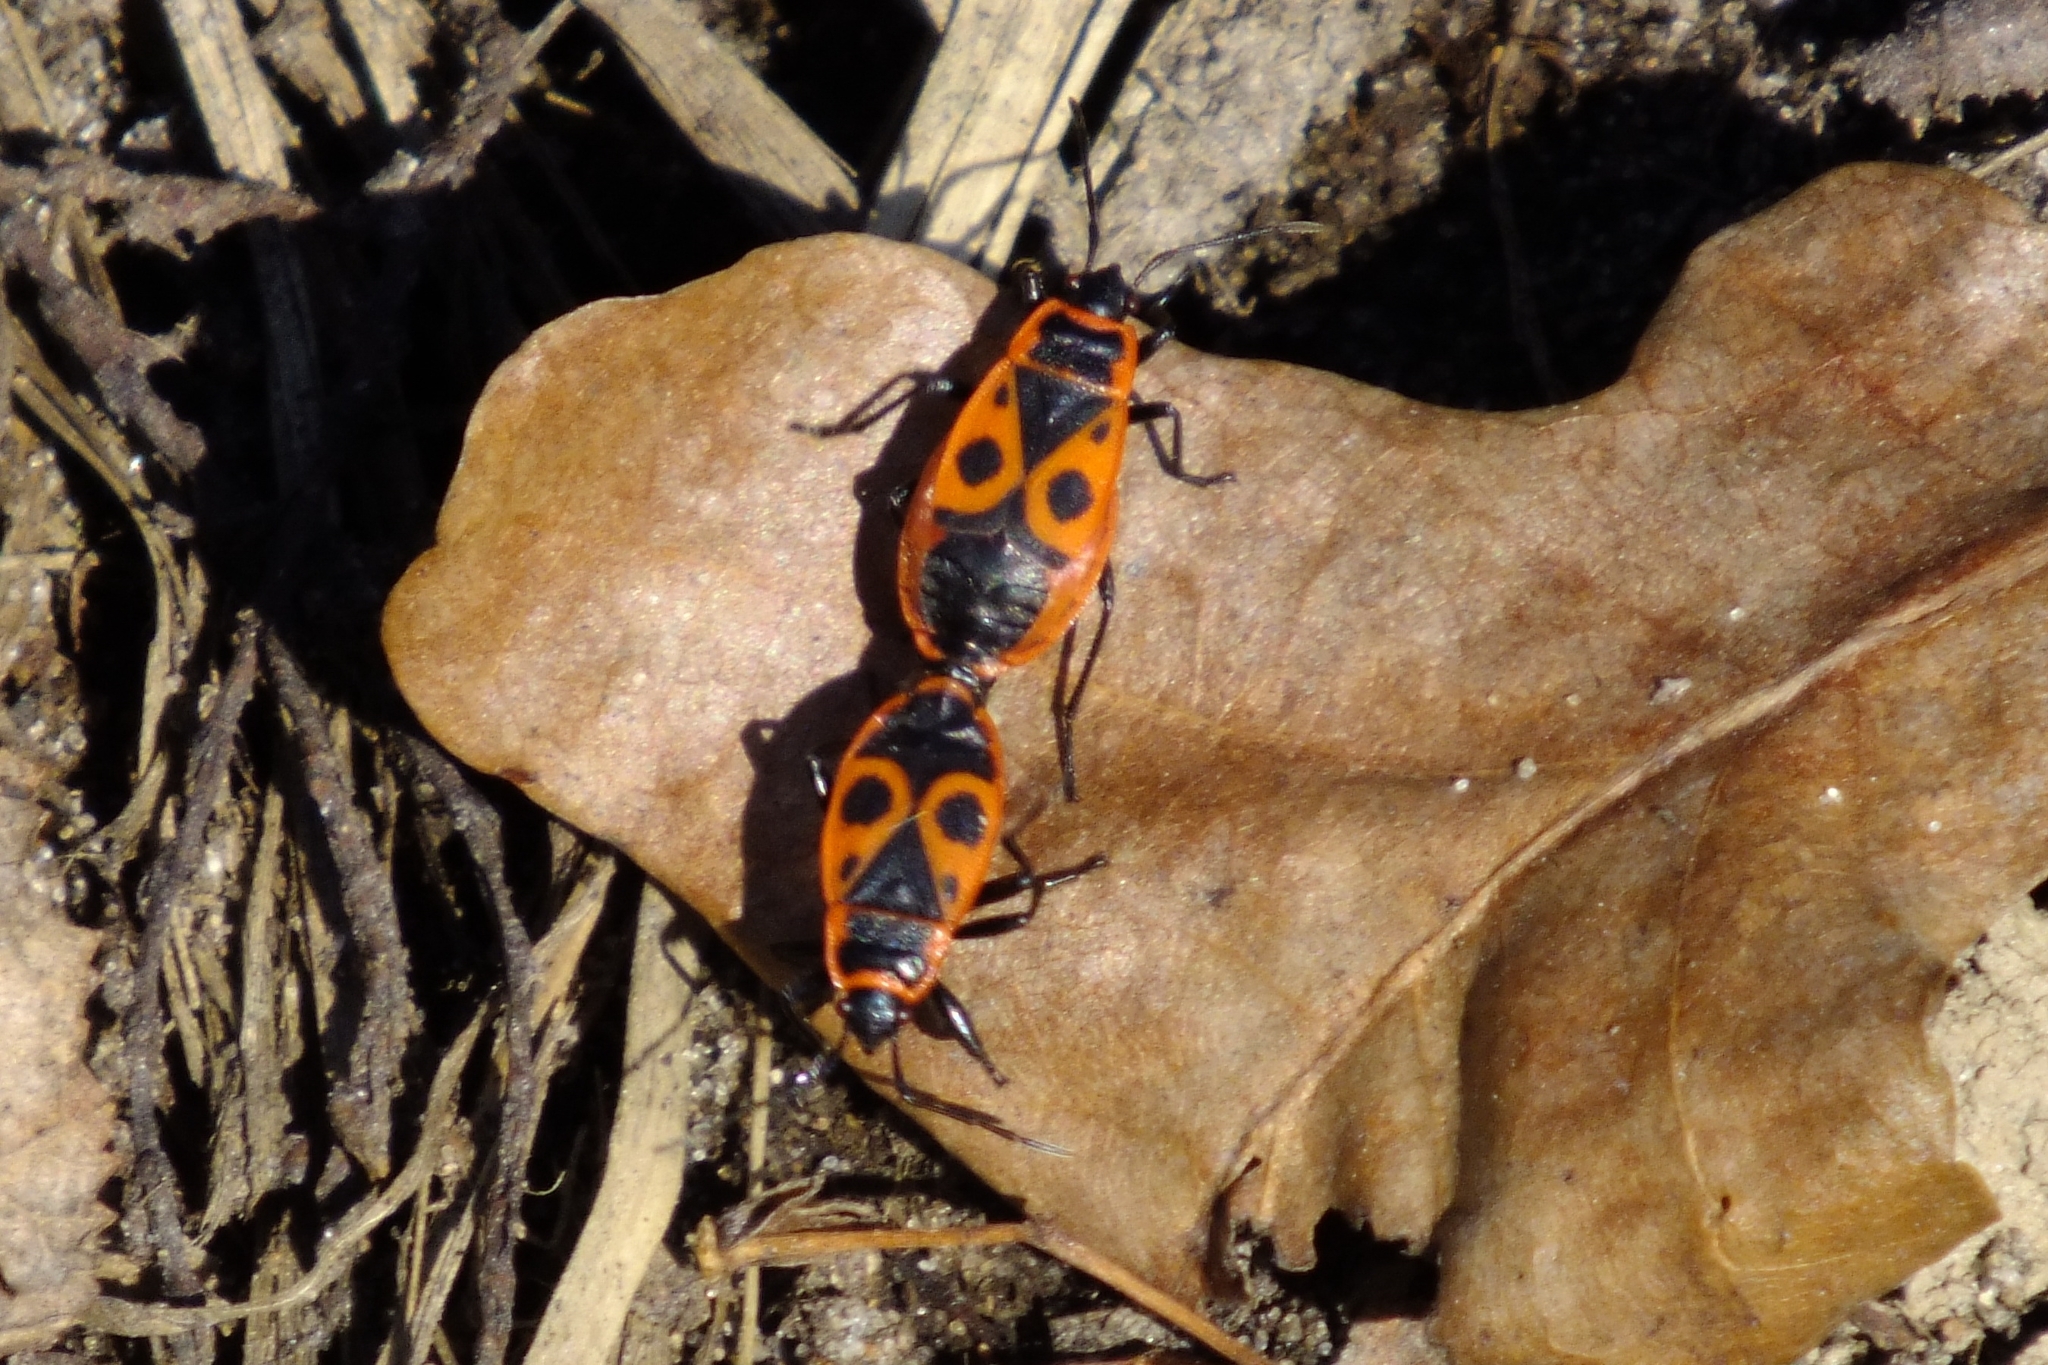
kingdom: Animalia
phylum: Arthropoda
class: Insecta
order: Hemiptera
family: Pyrrhocoridae
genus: Pyrrhocoris
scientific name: Pyrrhocoris apterus
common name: Firebug
